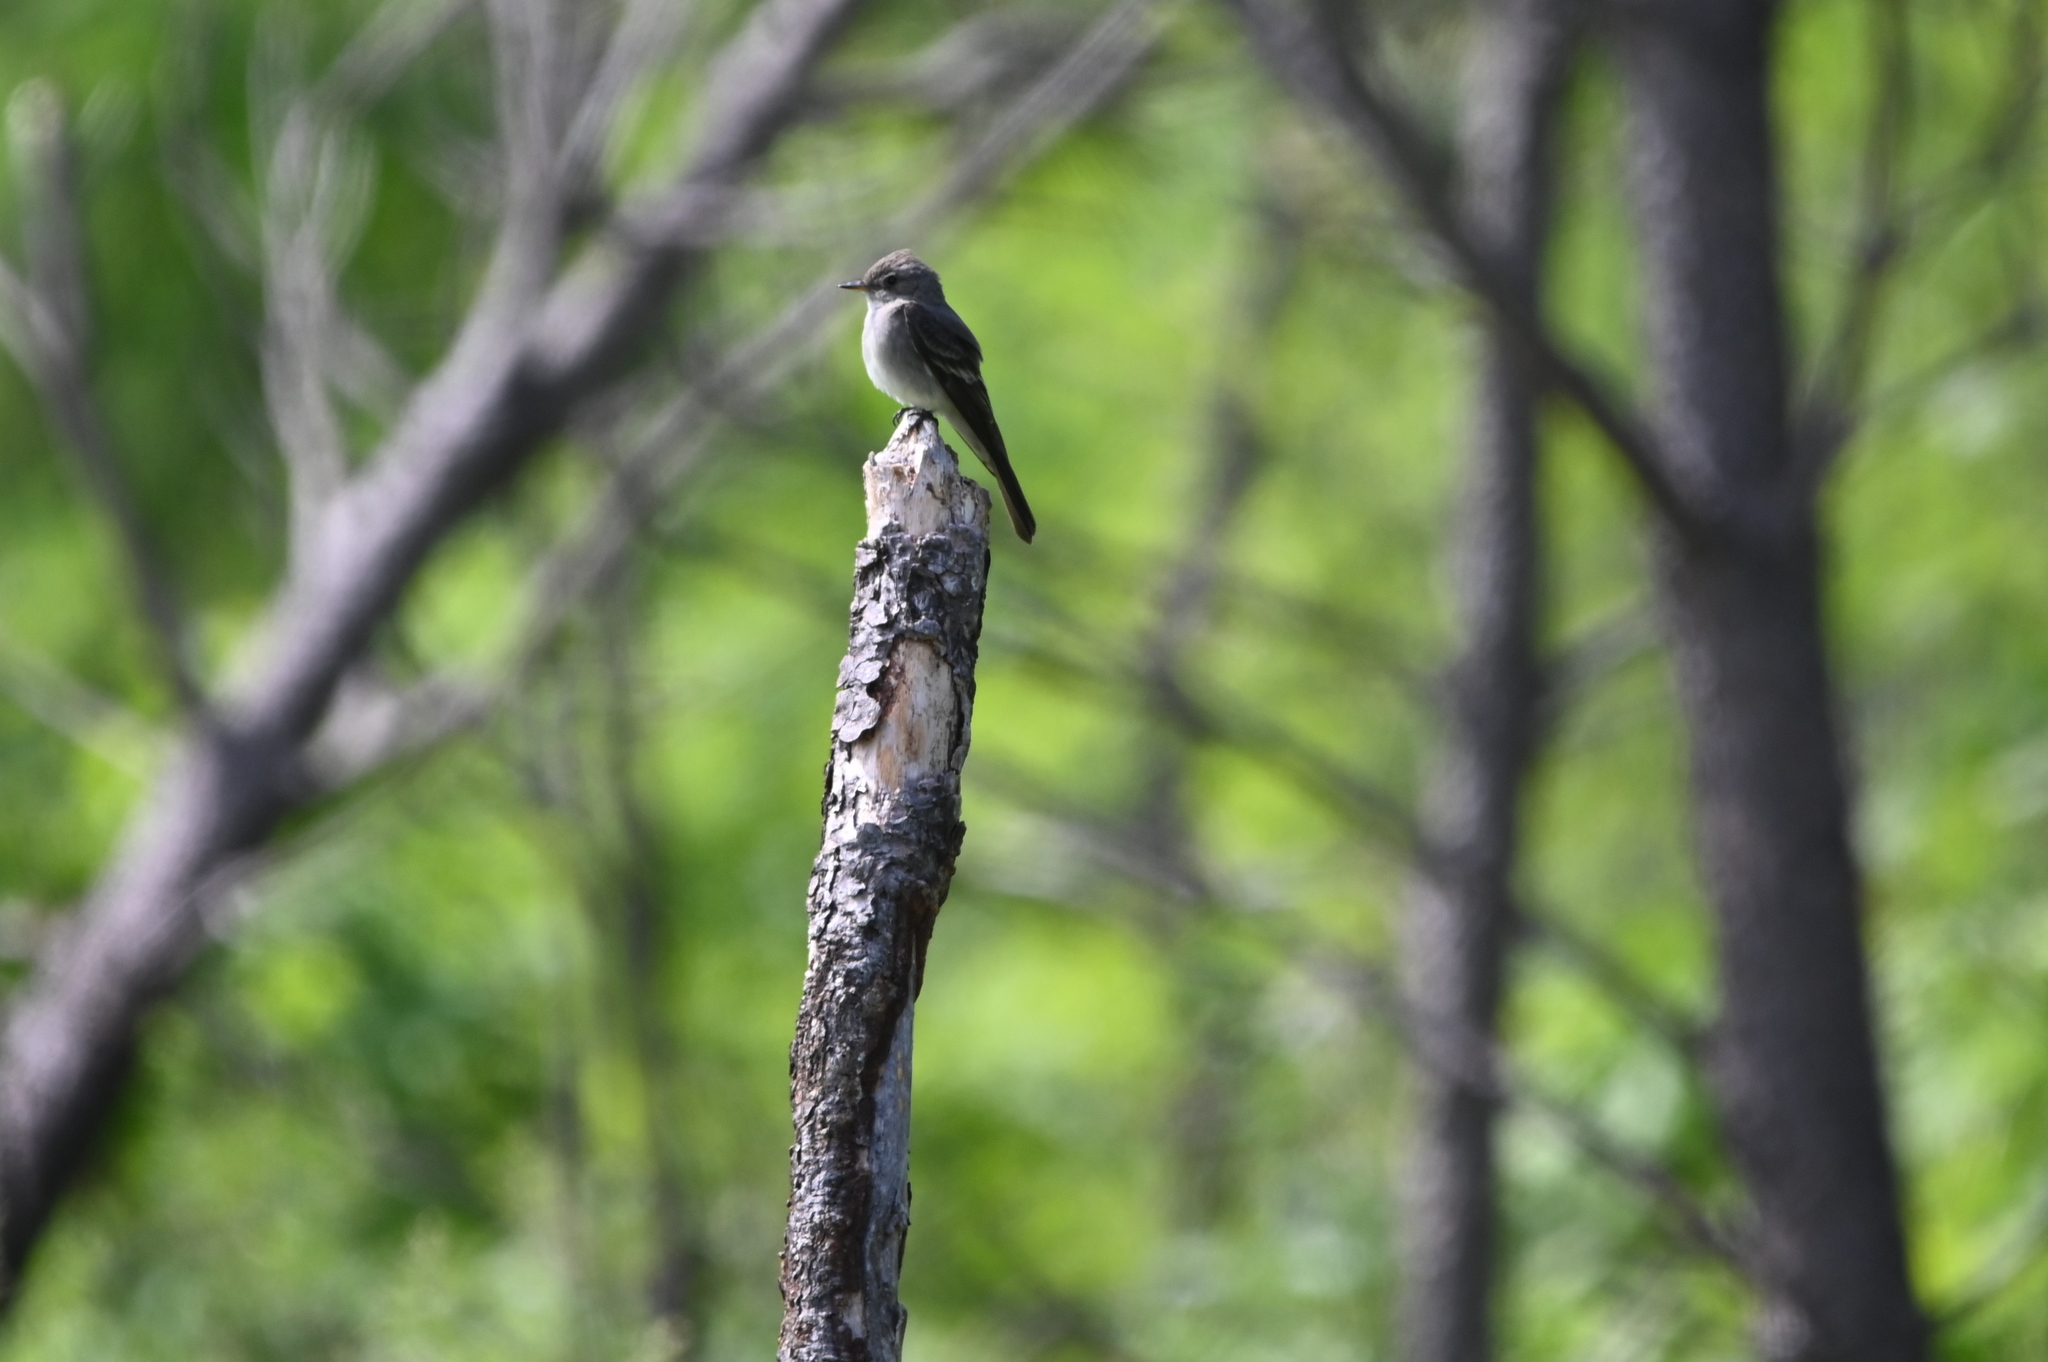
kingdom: Animalia
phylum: Chordata
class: Aves
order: Passeriformes
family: Tyrannidae
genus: Contopus
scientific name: Contopus sordidulus
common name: Western wood-pewee
